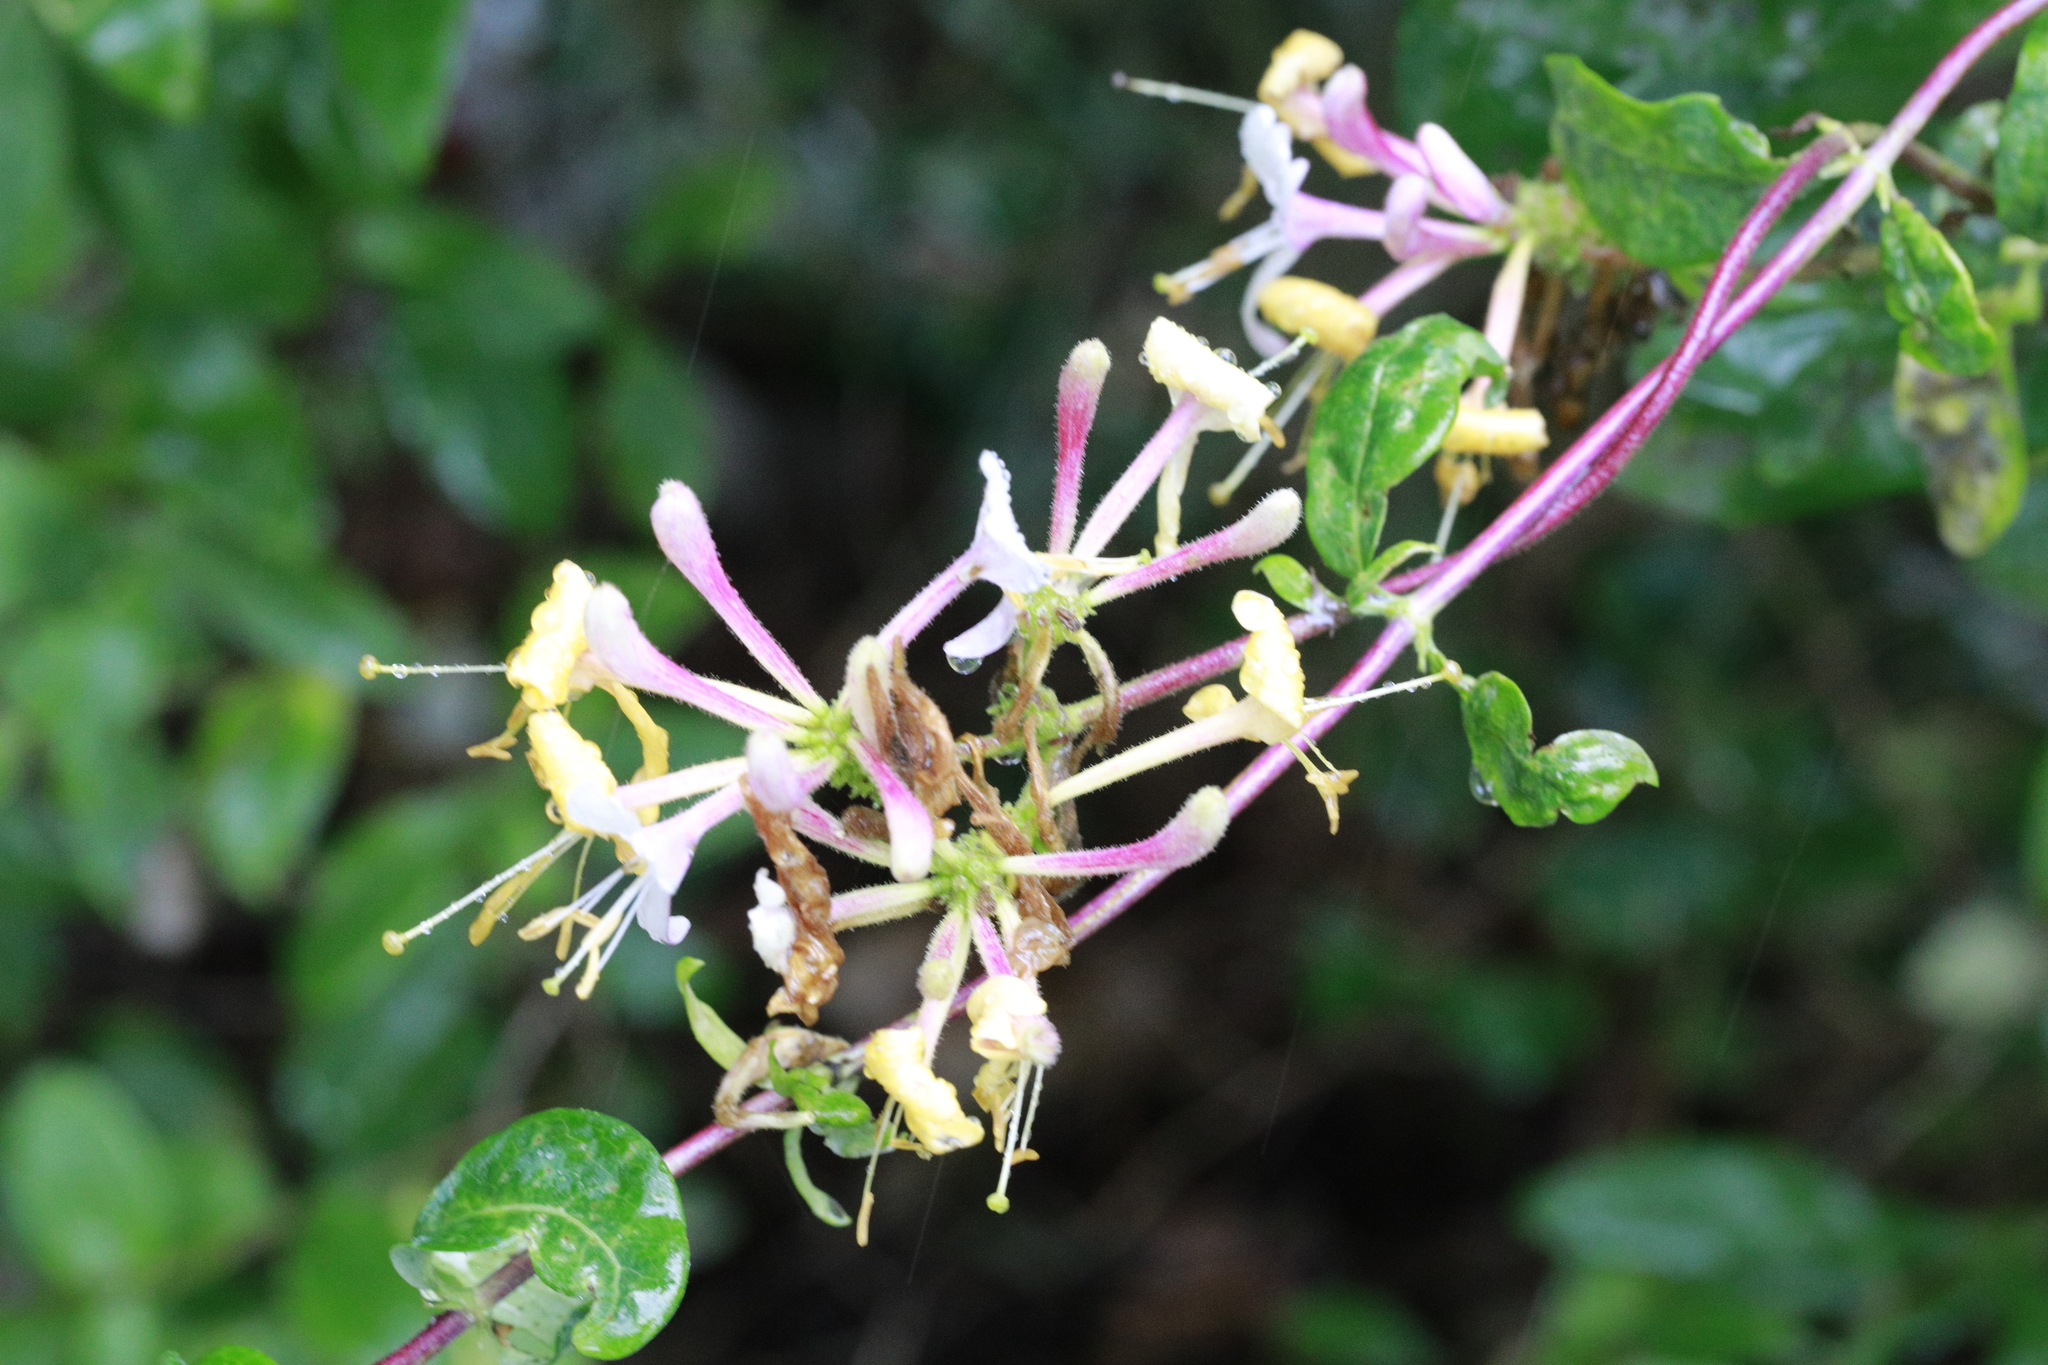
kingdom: Plantae
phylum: Tracheophyta
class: Magnoliopsida
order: Dipsacales
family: Caprifoliaceae
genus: Lonicera
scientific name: Lonicera periclymenum
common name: European honeysuckle
